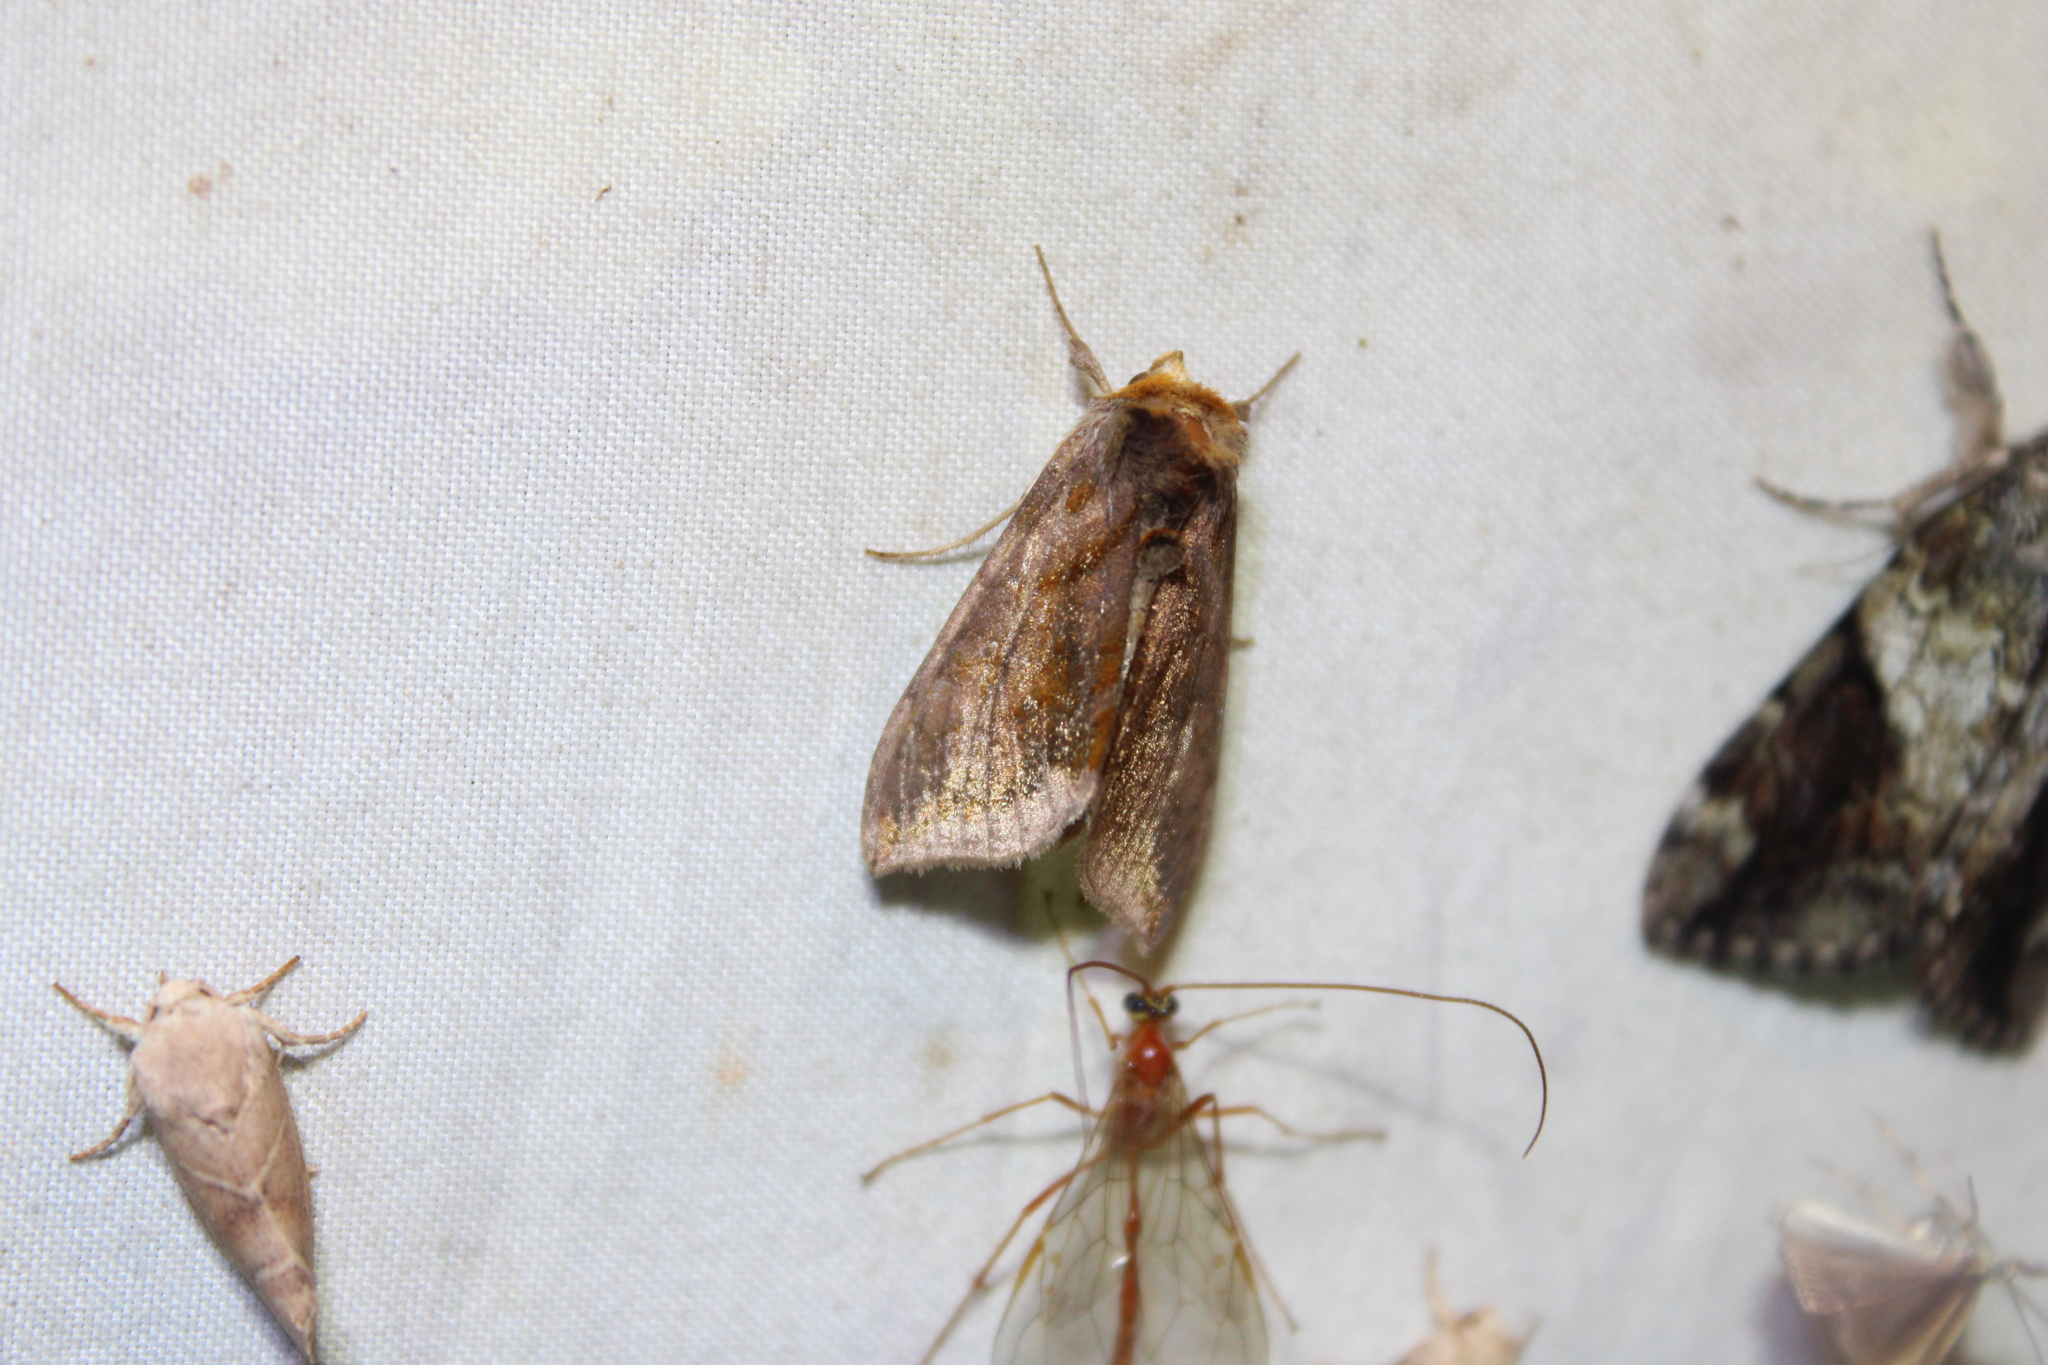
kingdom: Animalia
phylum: Arthropoda
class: Insecta
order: Lepidoptera
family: Noctuidae
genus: Allagrapha
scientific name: Allagrapha aerea
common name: Unspotted looper moth
